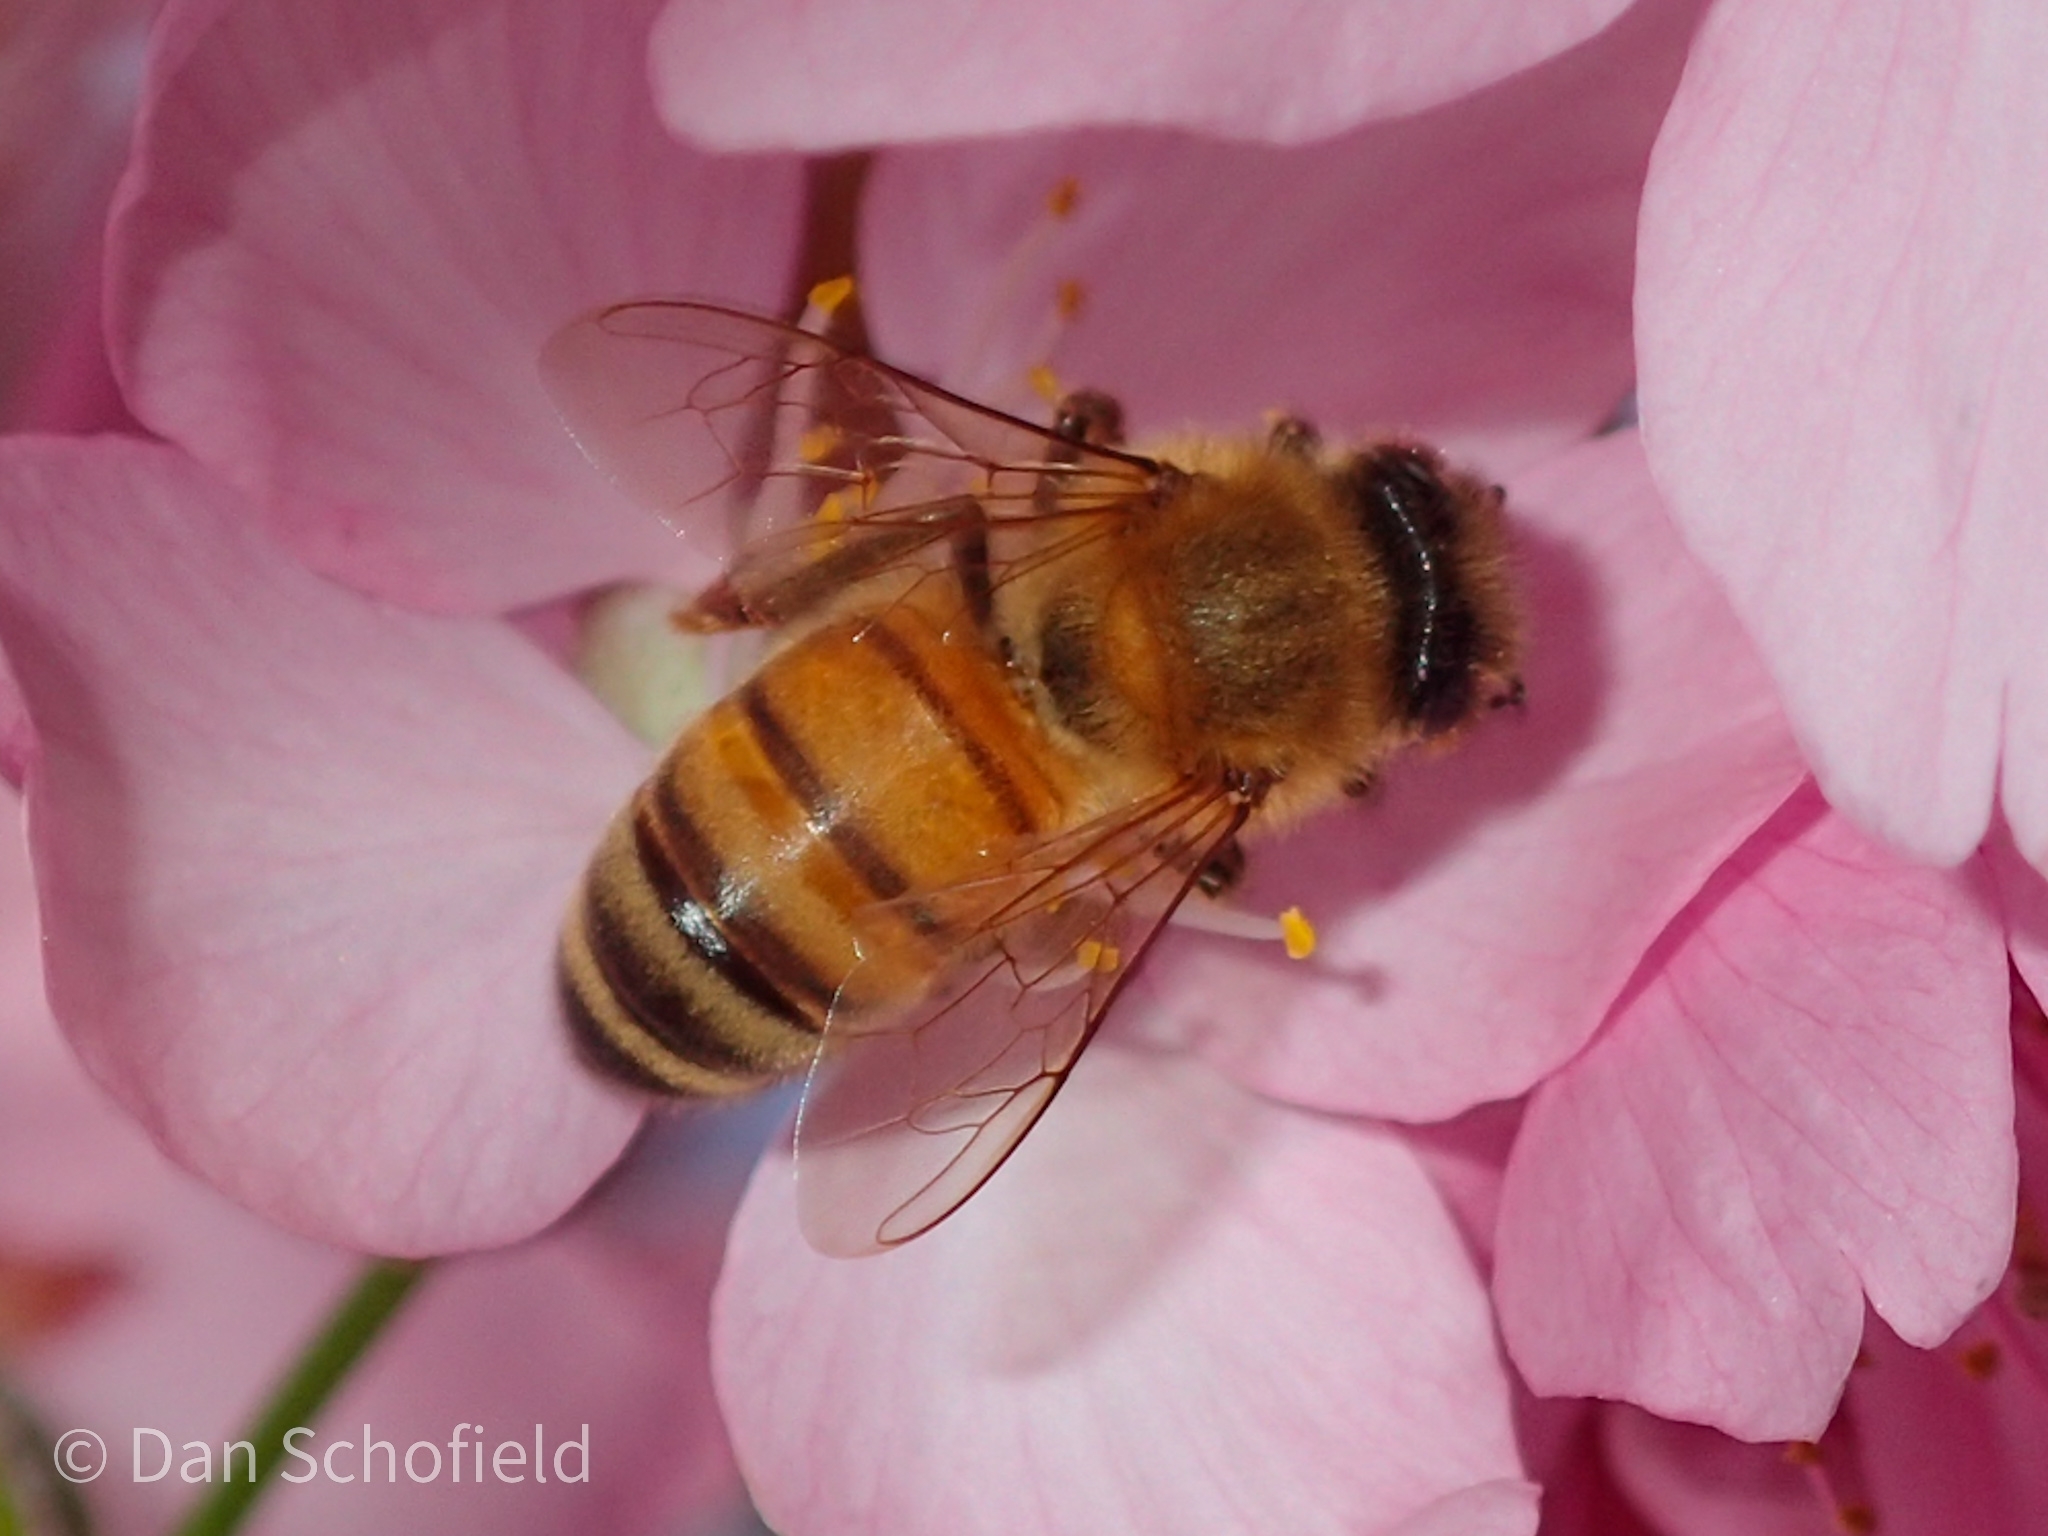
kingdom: Animalia
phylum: Arthropoda
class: Insecta
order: Hymenoptera
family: Apidae
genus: Apis
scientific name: Apis mellifera
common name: Honey bee
